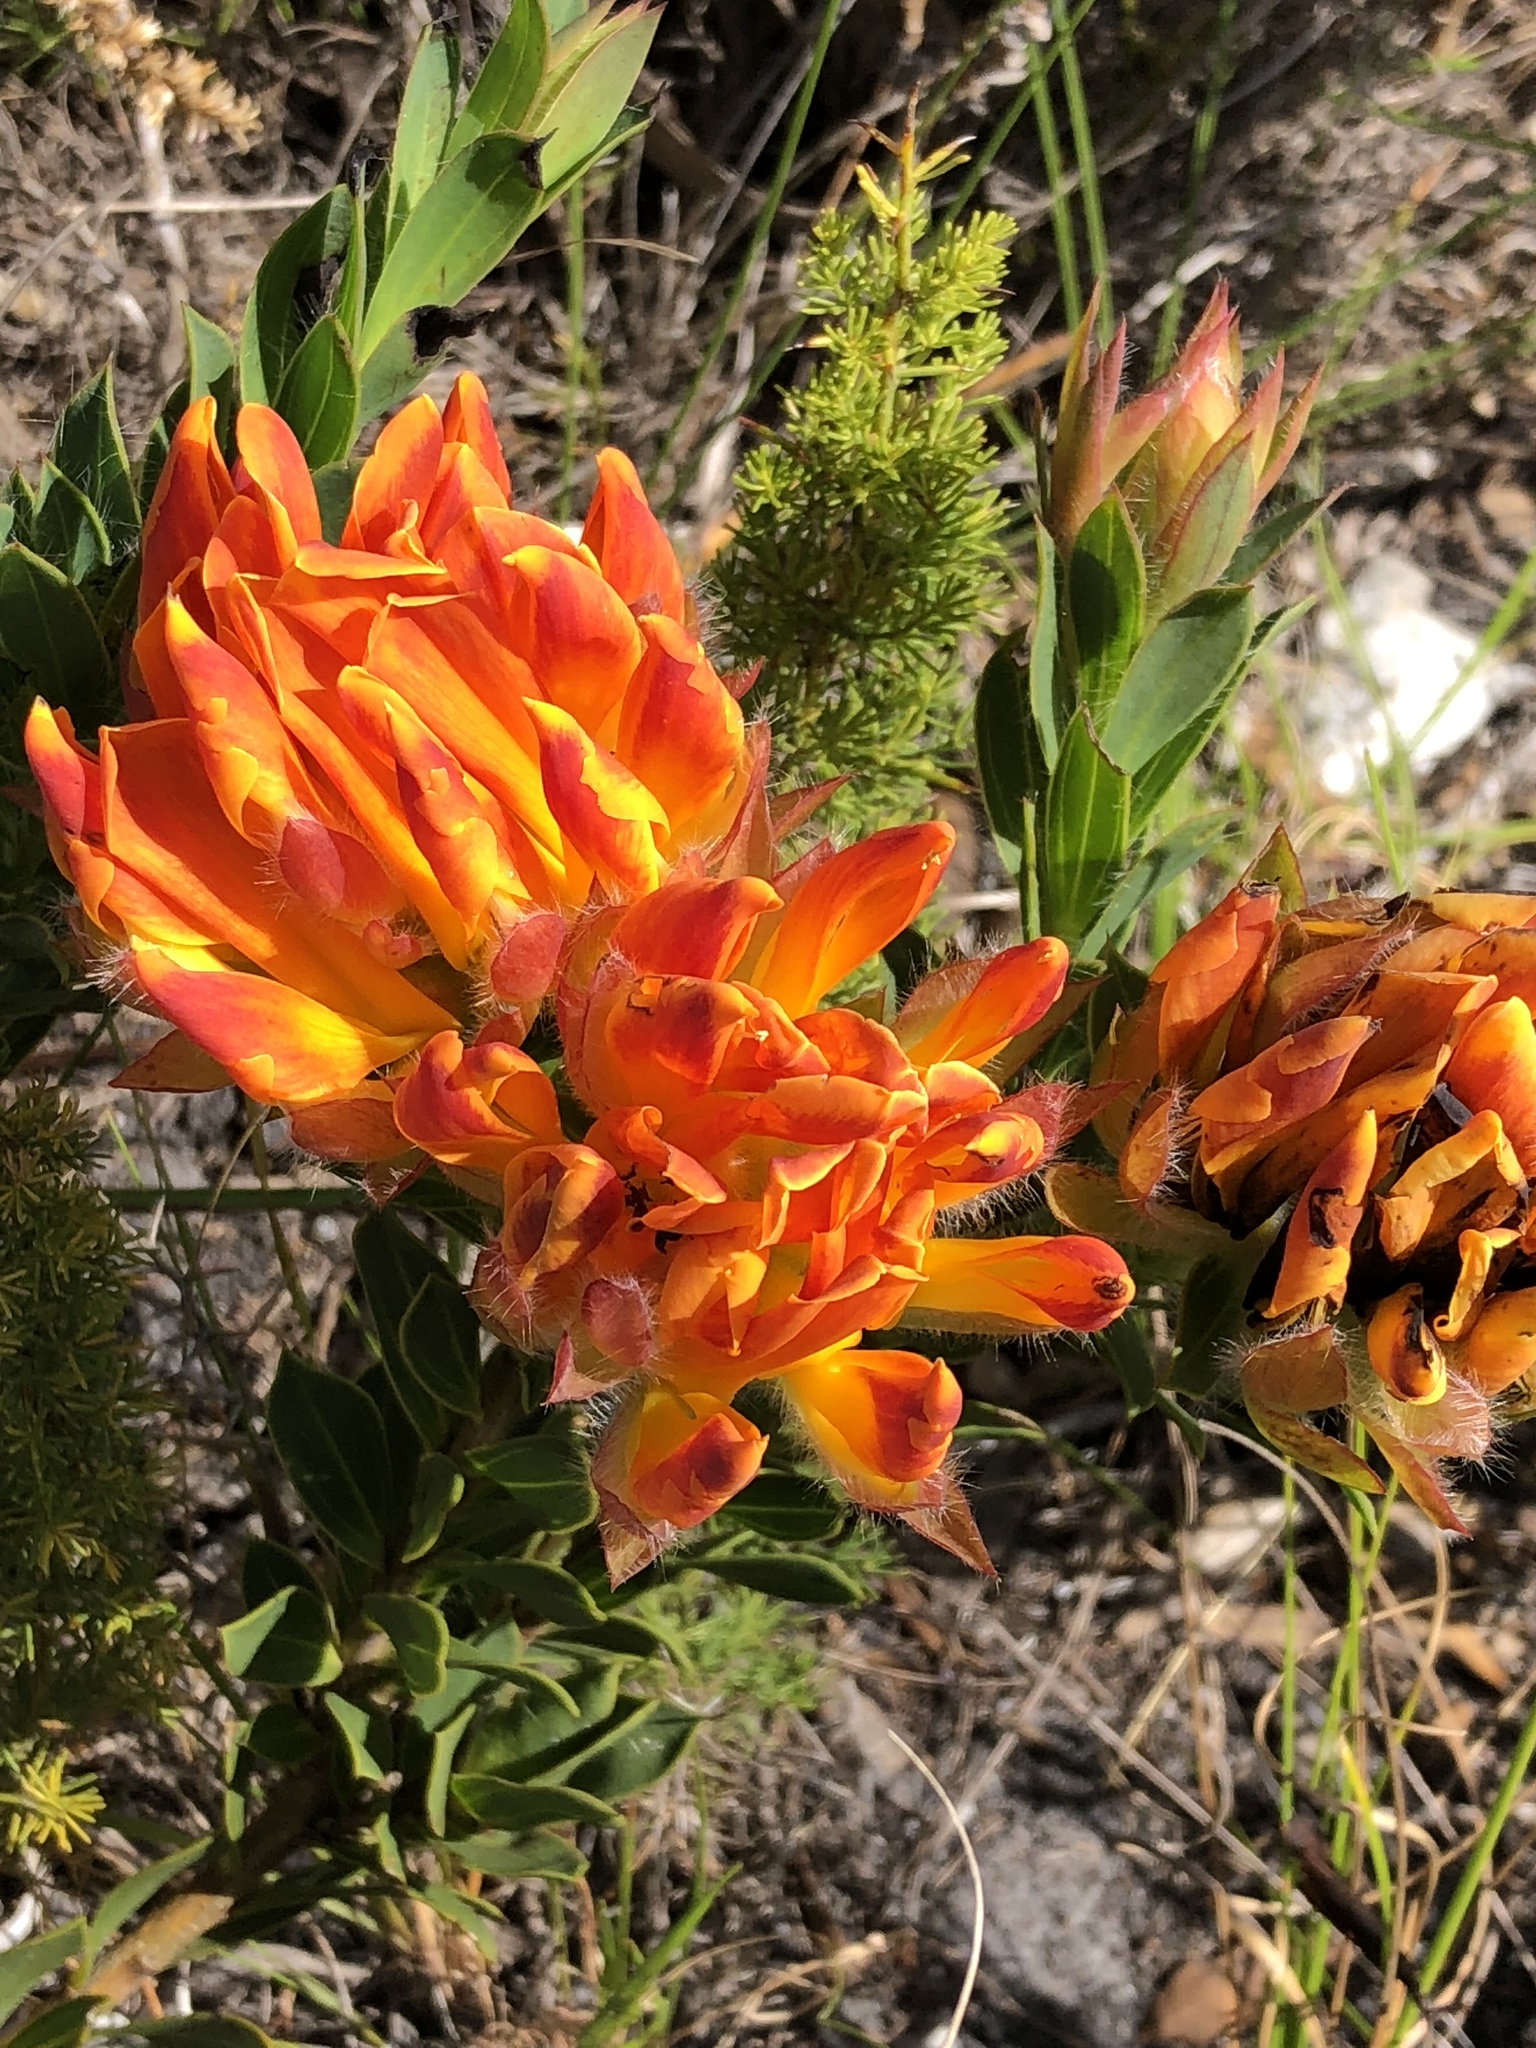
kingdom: Plantae
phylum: Tracheophyta
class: Magnoliopsida
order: Fabales
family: Fabaceae
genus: Liparia
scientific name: Liparia splendens
